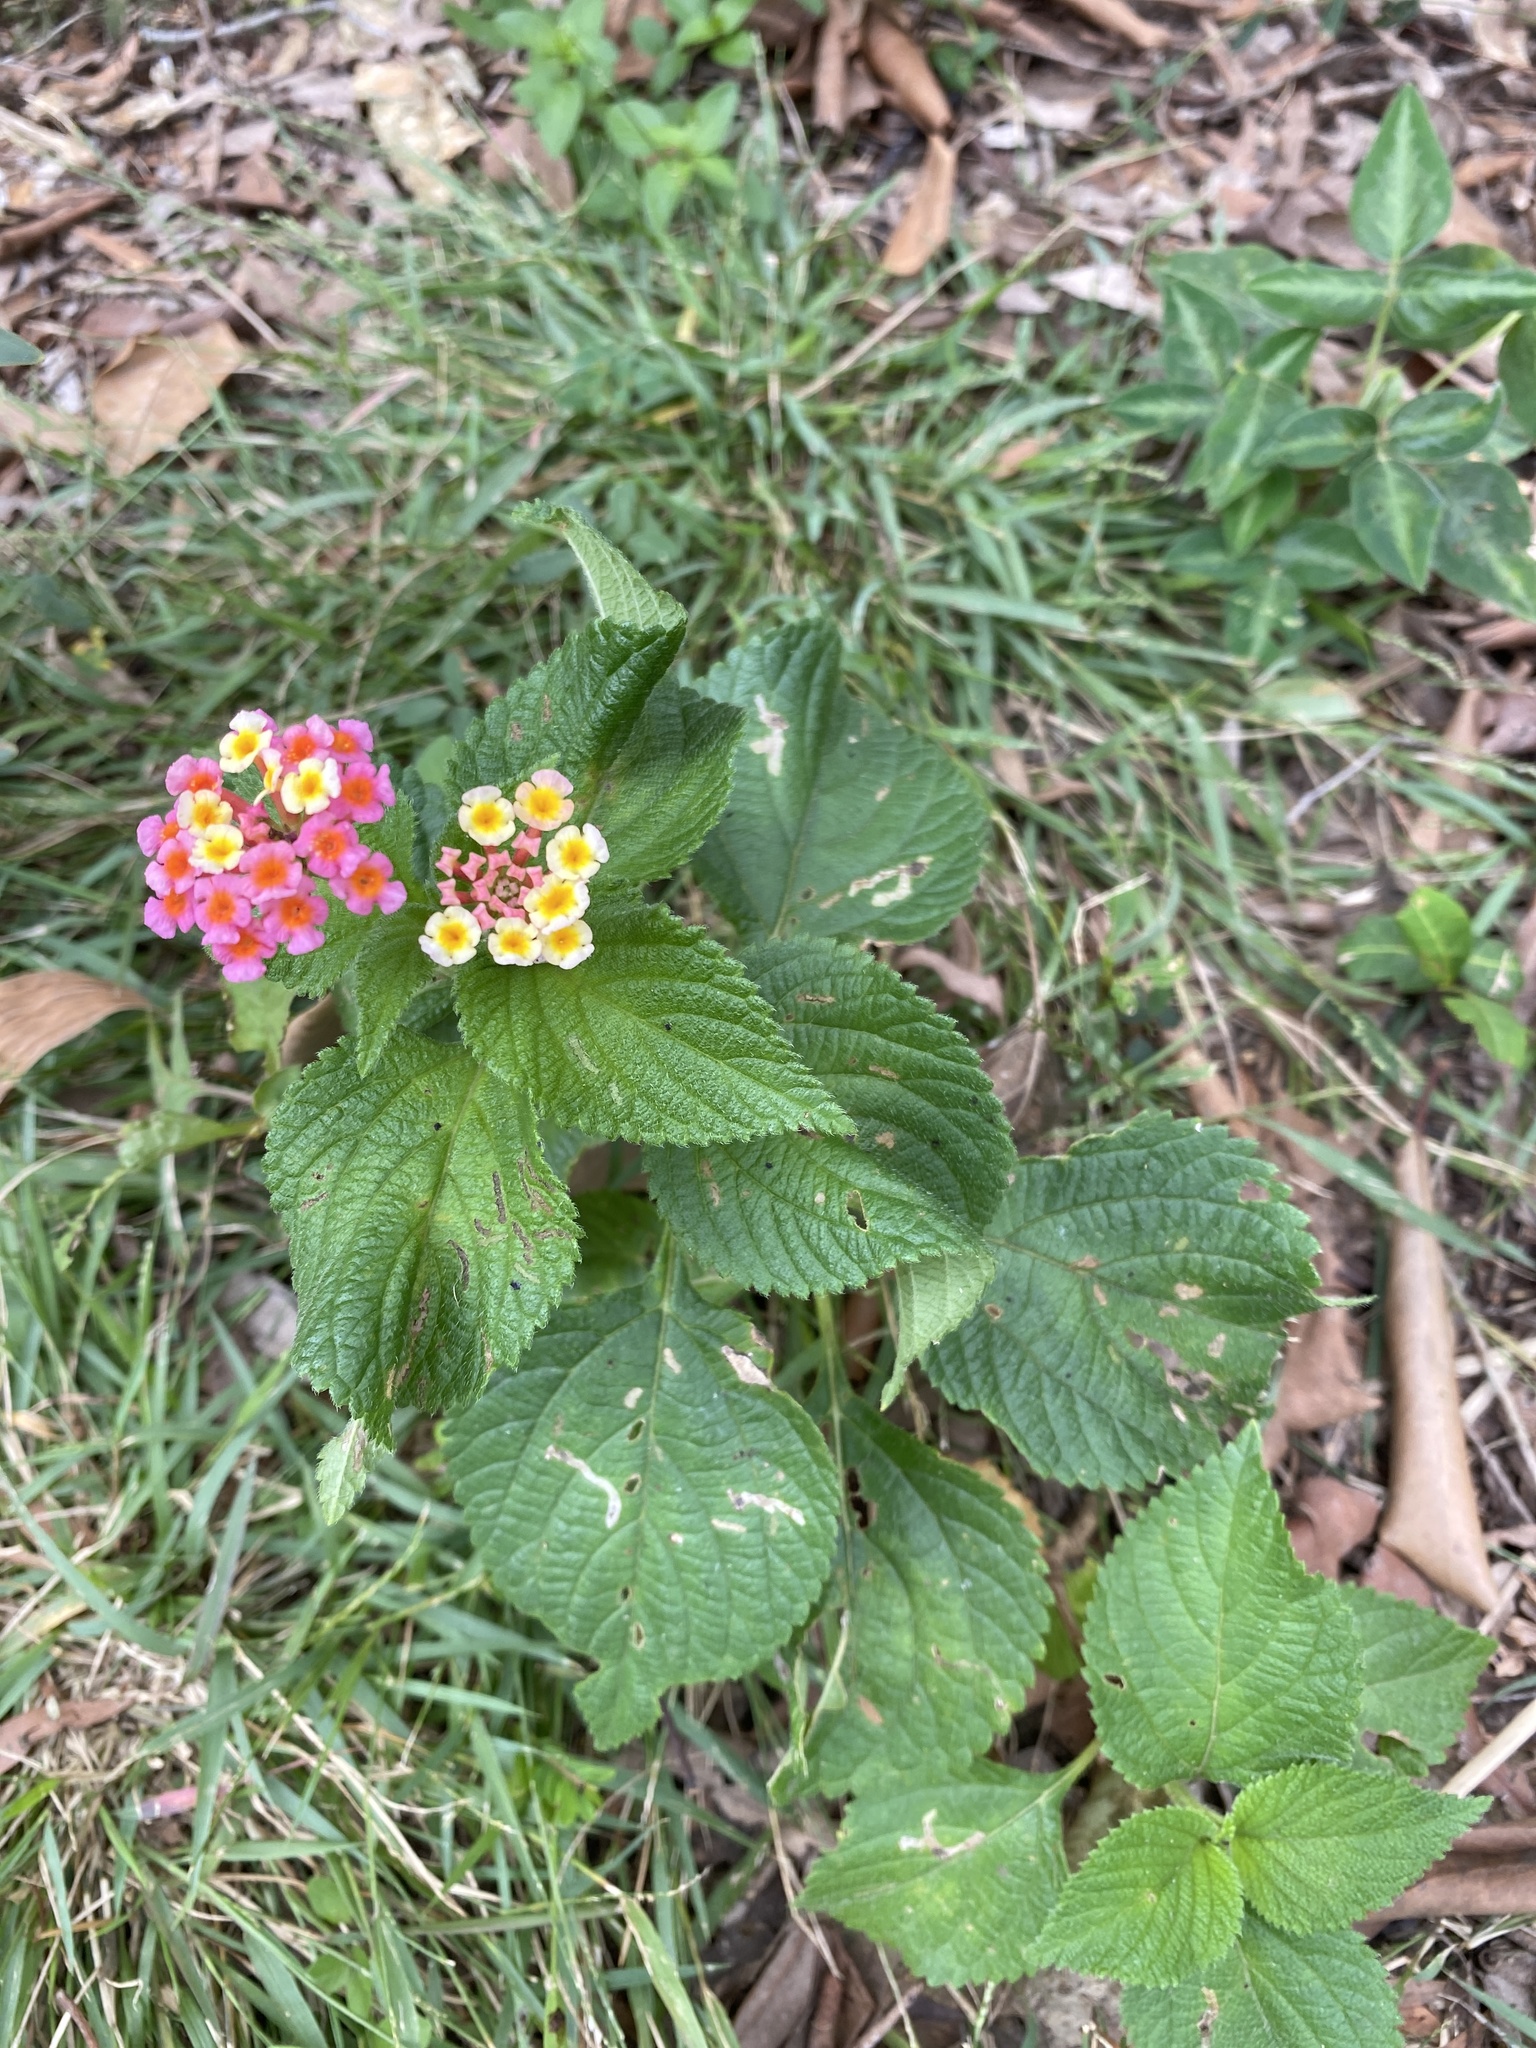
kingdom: Plantae
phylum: Tracheophyta
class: Magnoliopsida
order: Lamiales
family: Verbenaceae
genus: Lantana
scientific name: Lantana camara
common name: Lantana
